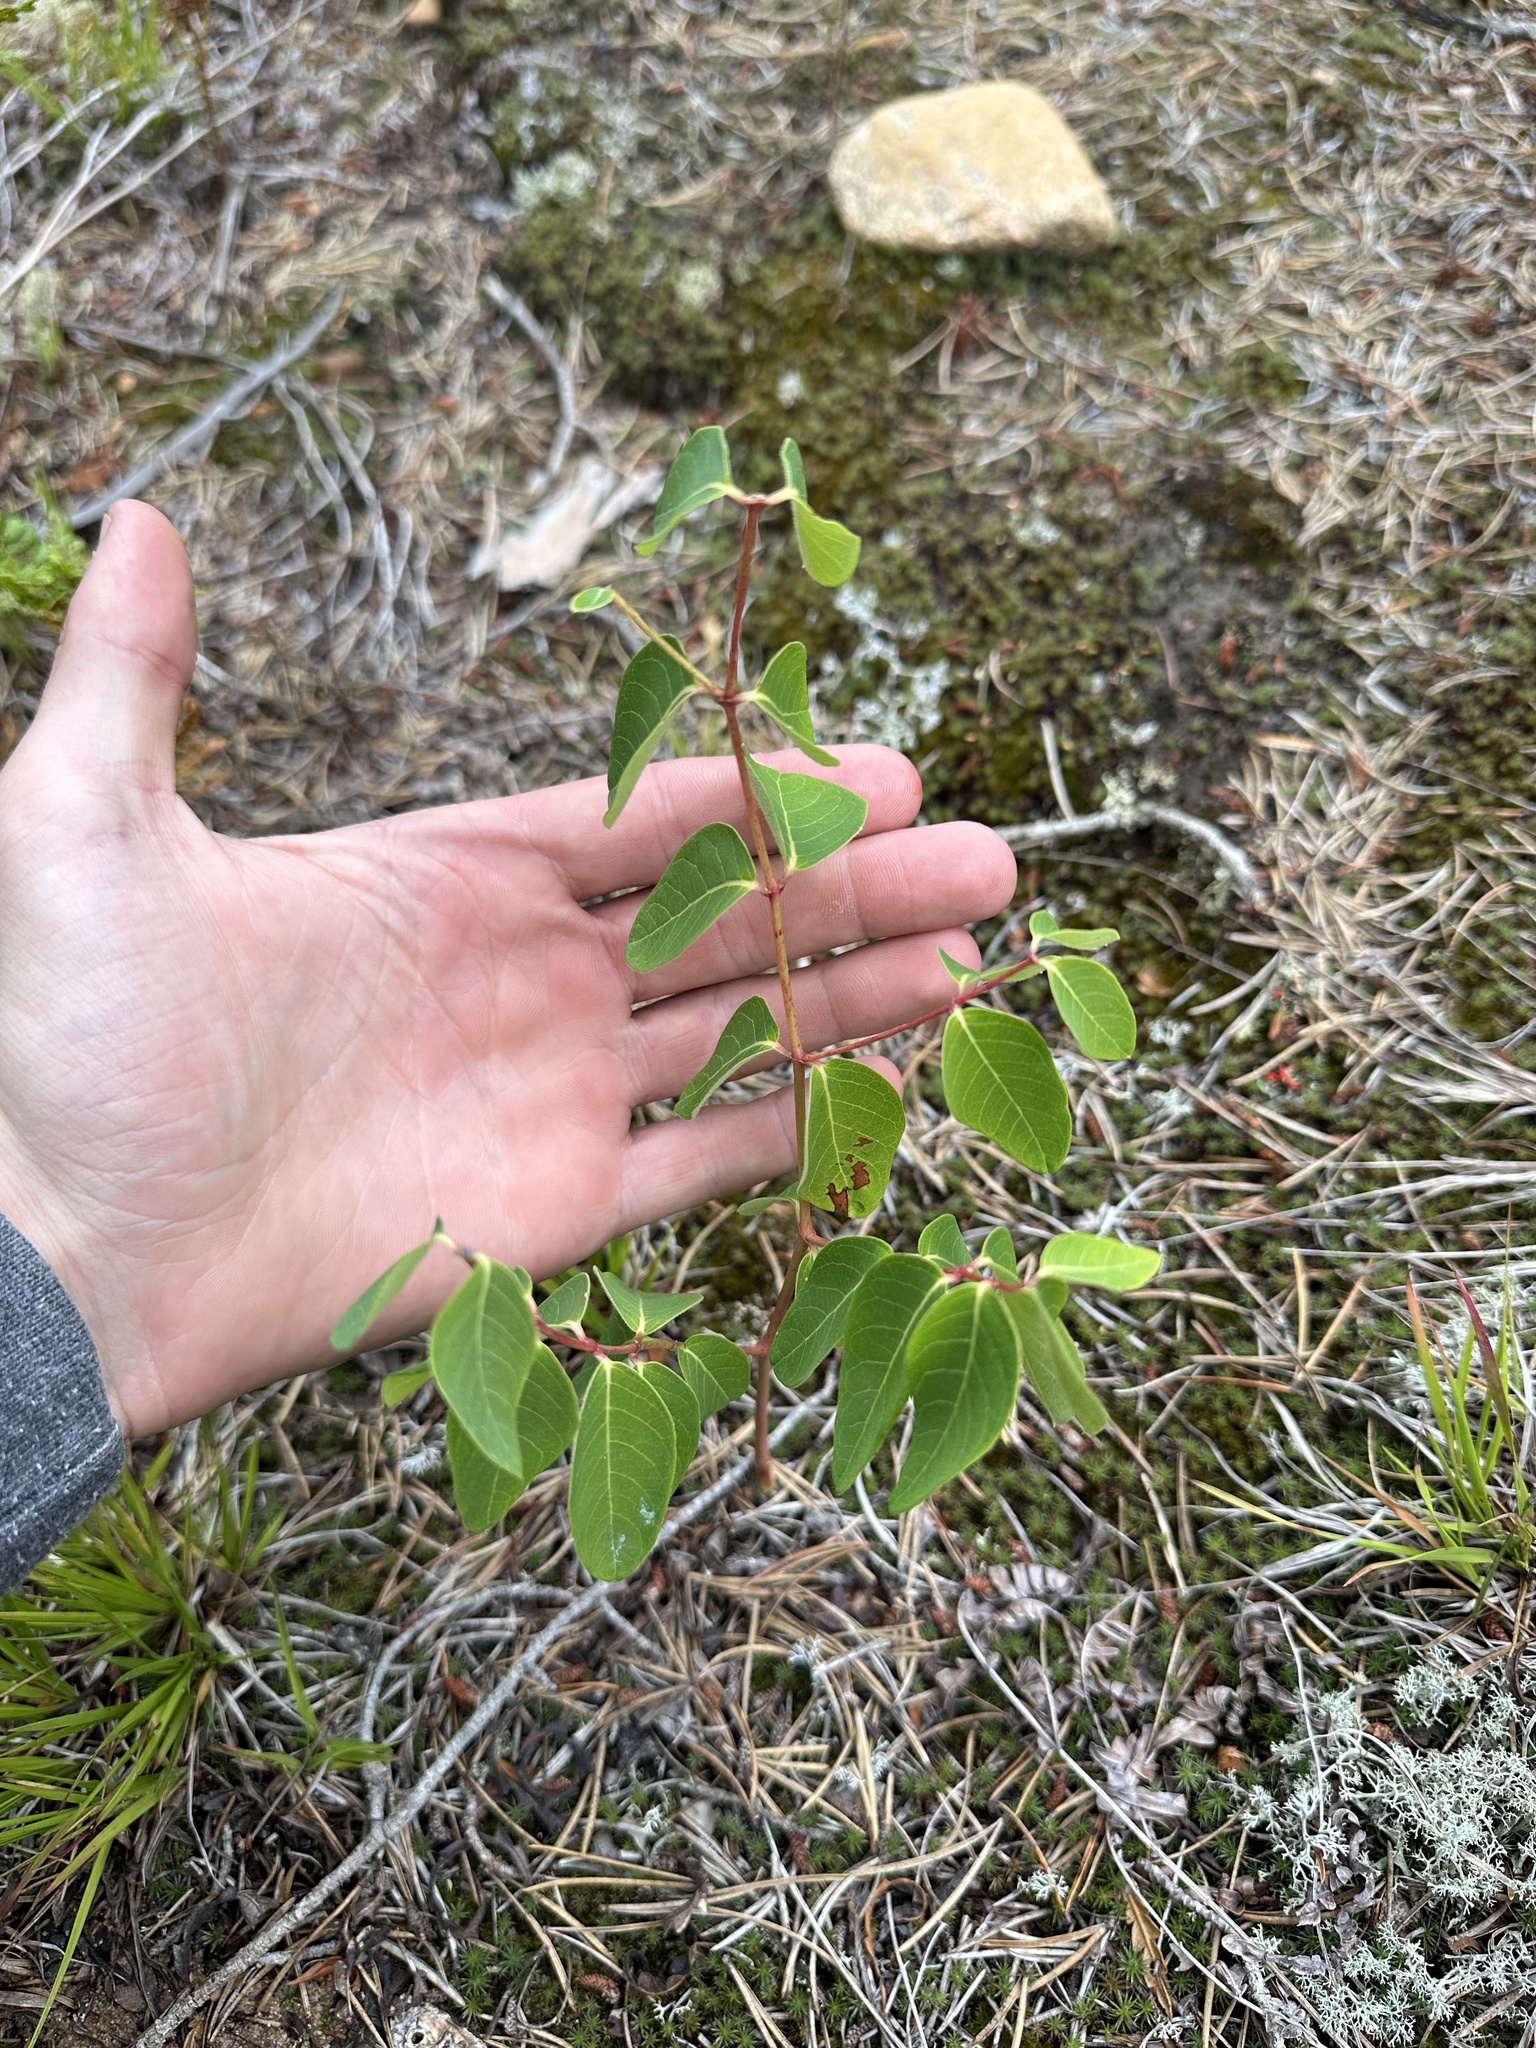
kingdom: Plantae
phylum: Tracheophyta
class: Magnoliopsida
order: Gentianales
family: Apocynaceae
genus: Apocynum
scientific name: Apocynum androsaemifolium
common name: Spreading dogbane
